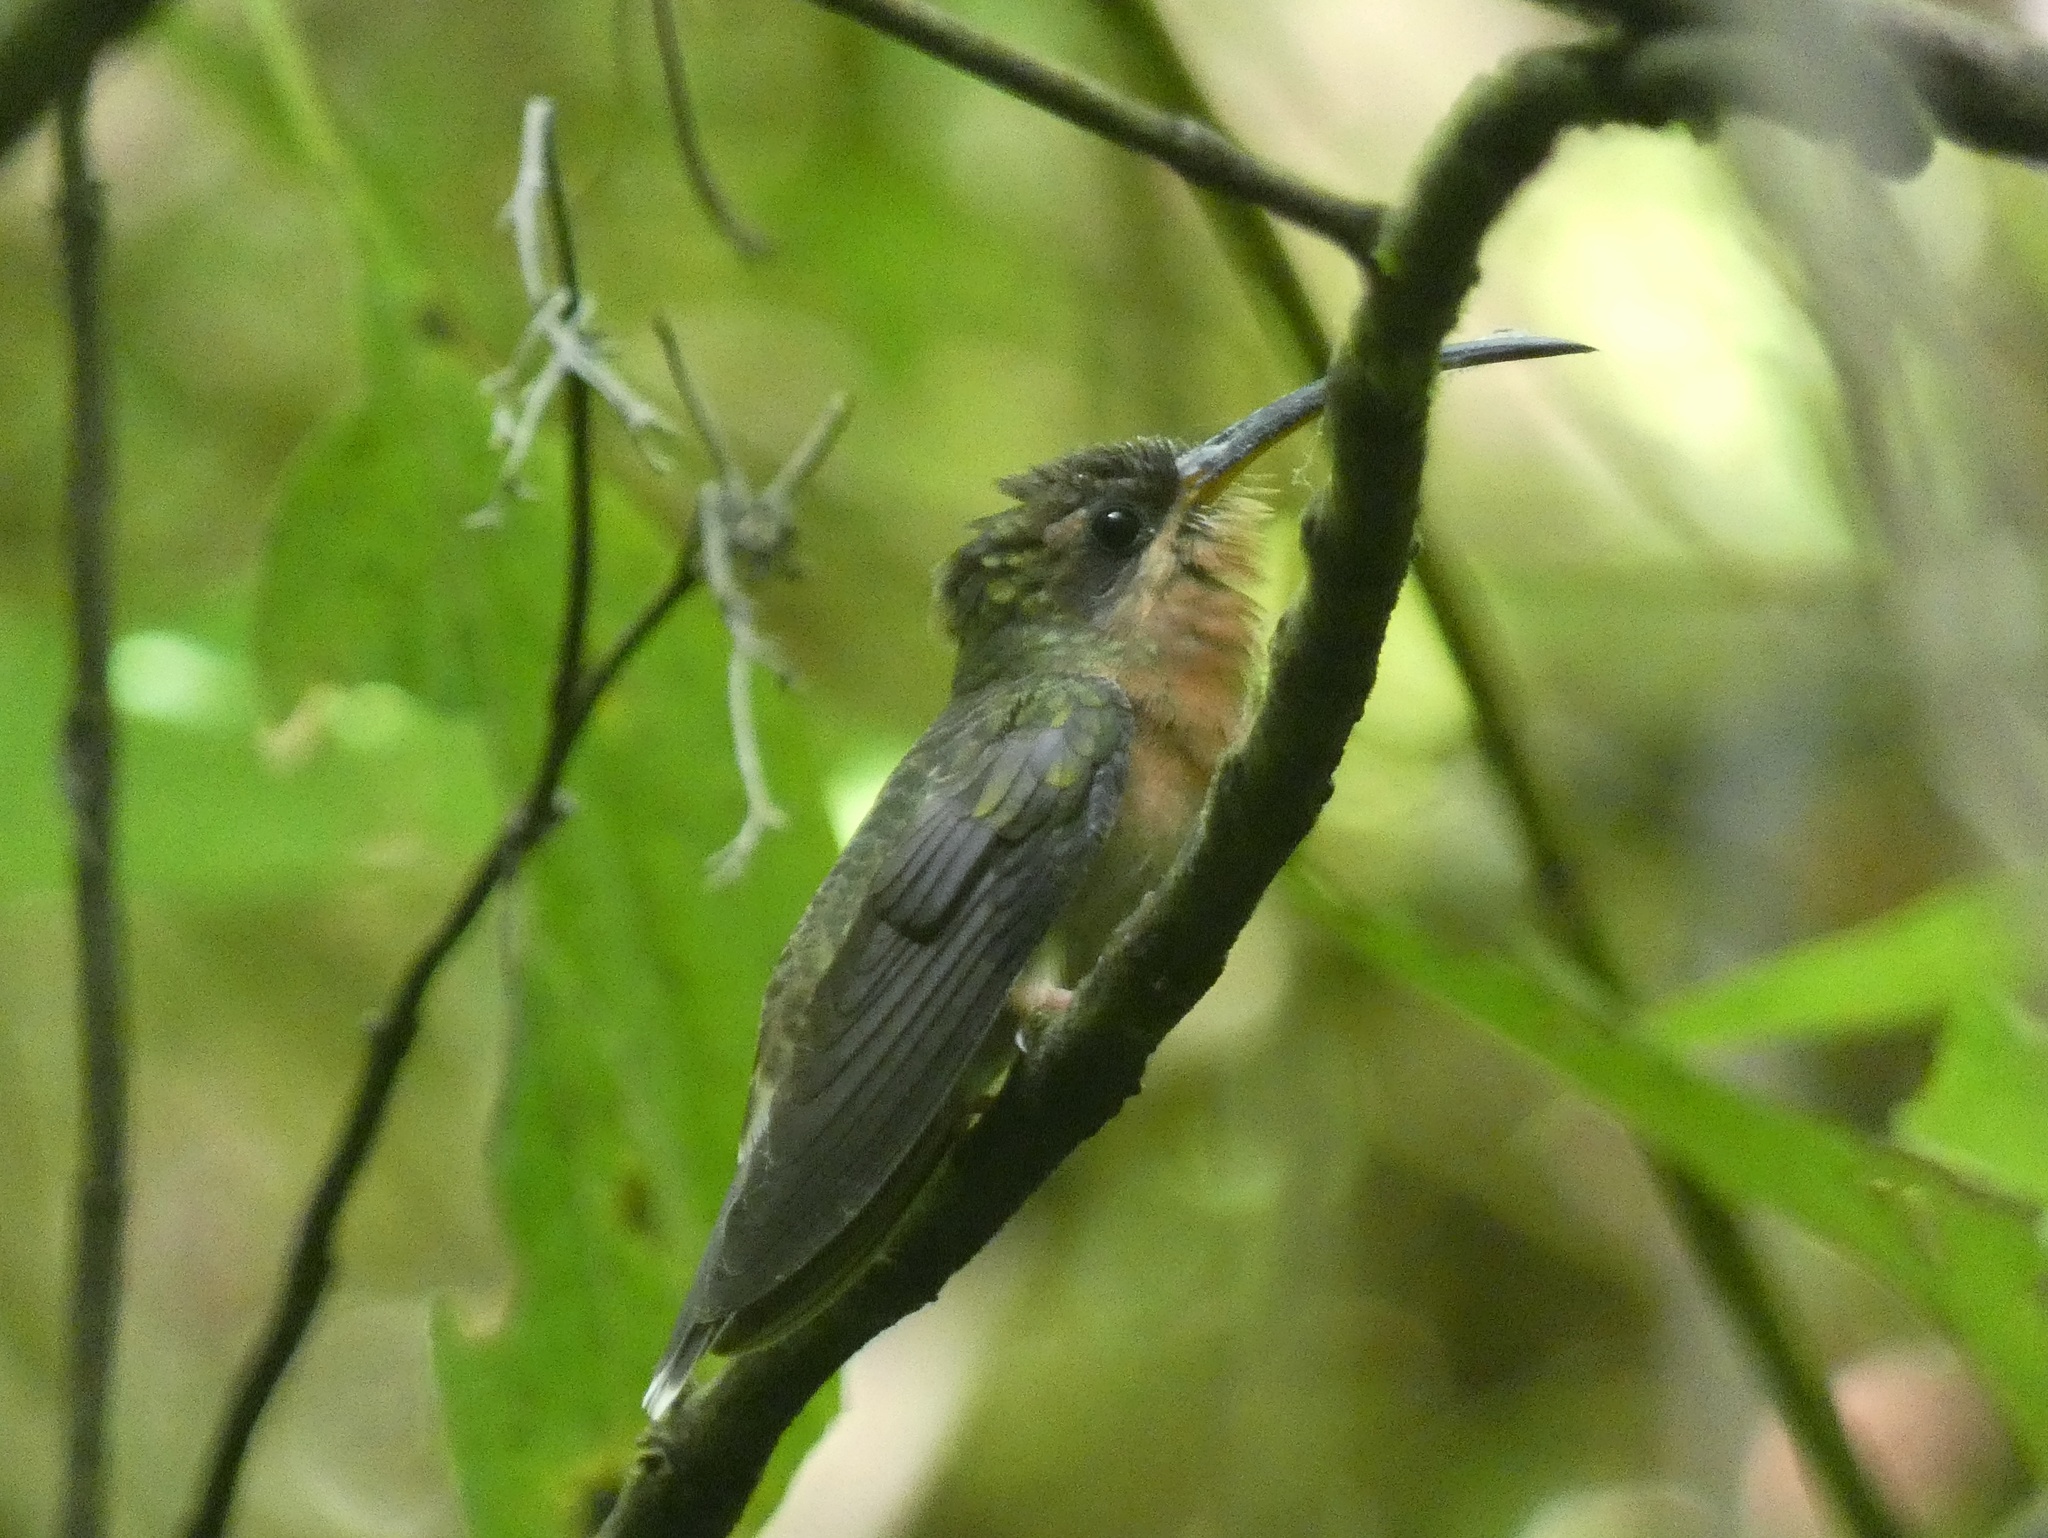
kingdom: Animalia
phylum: Chordata
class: Aves
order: Apodiformes
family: Trochilidae
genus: Glaucis
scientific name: Glaucis hirsutus
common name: Rufous-breasted hermit
